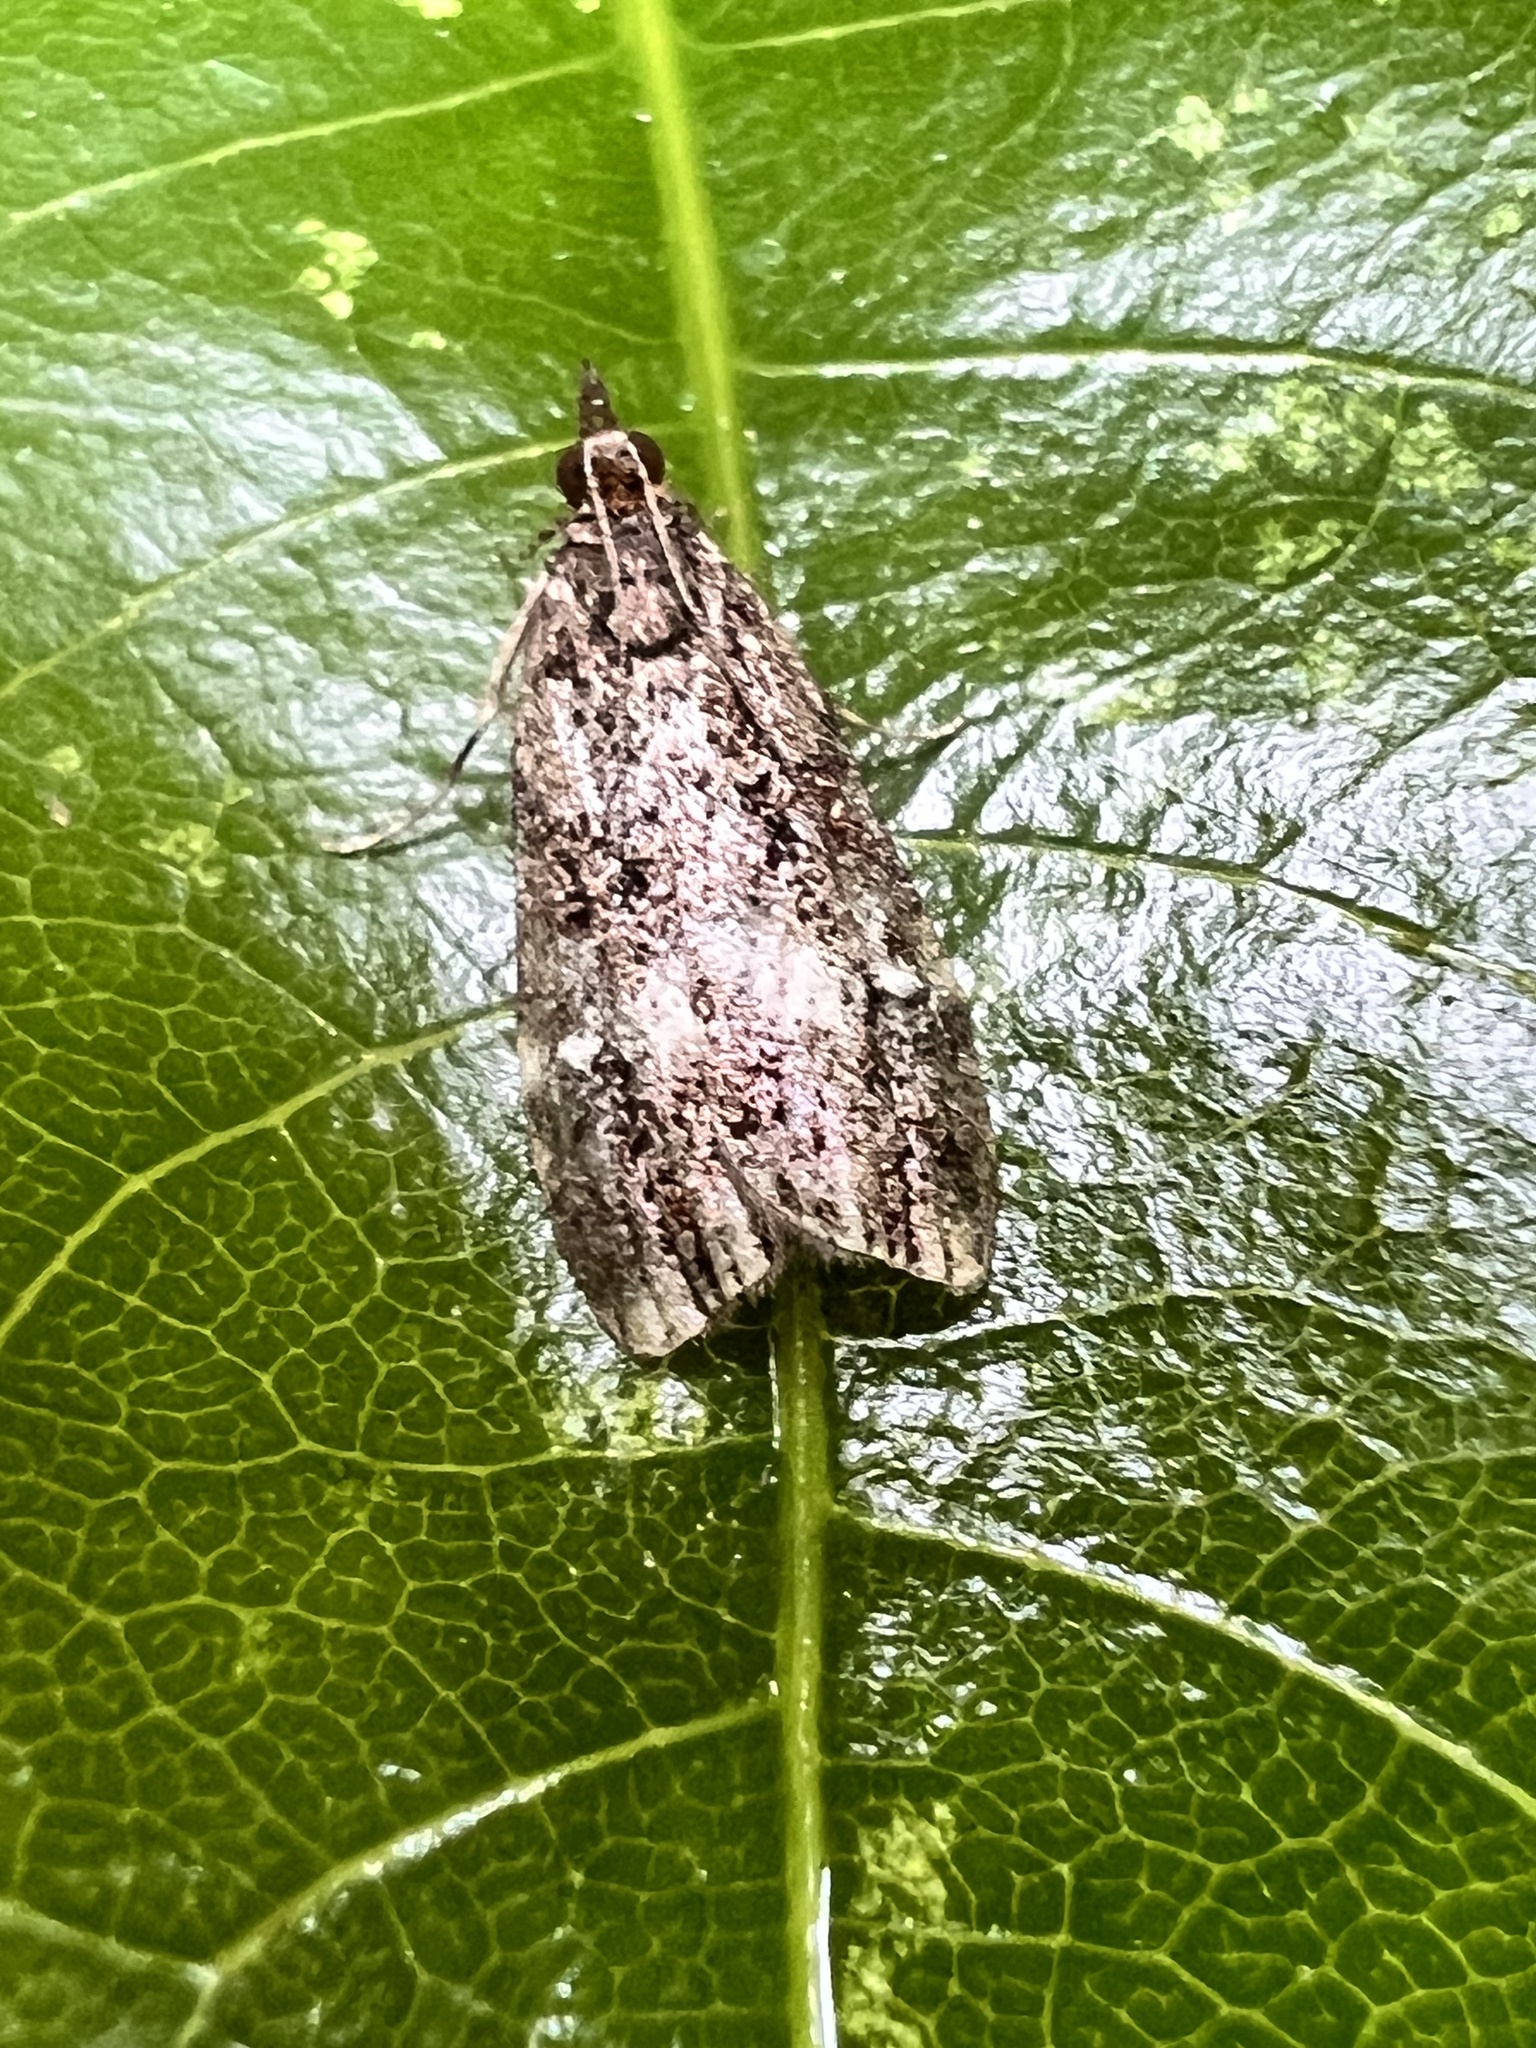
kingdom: Animalia
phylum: Arthropoda
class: Insecta
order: Lepidoptera
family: Crambidae
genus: Eudonia
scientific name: Eudonia dinodes
